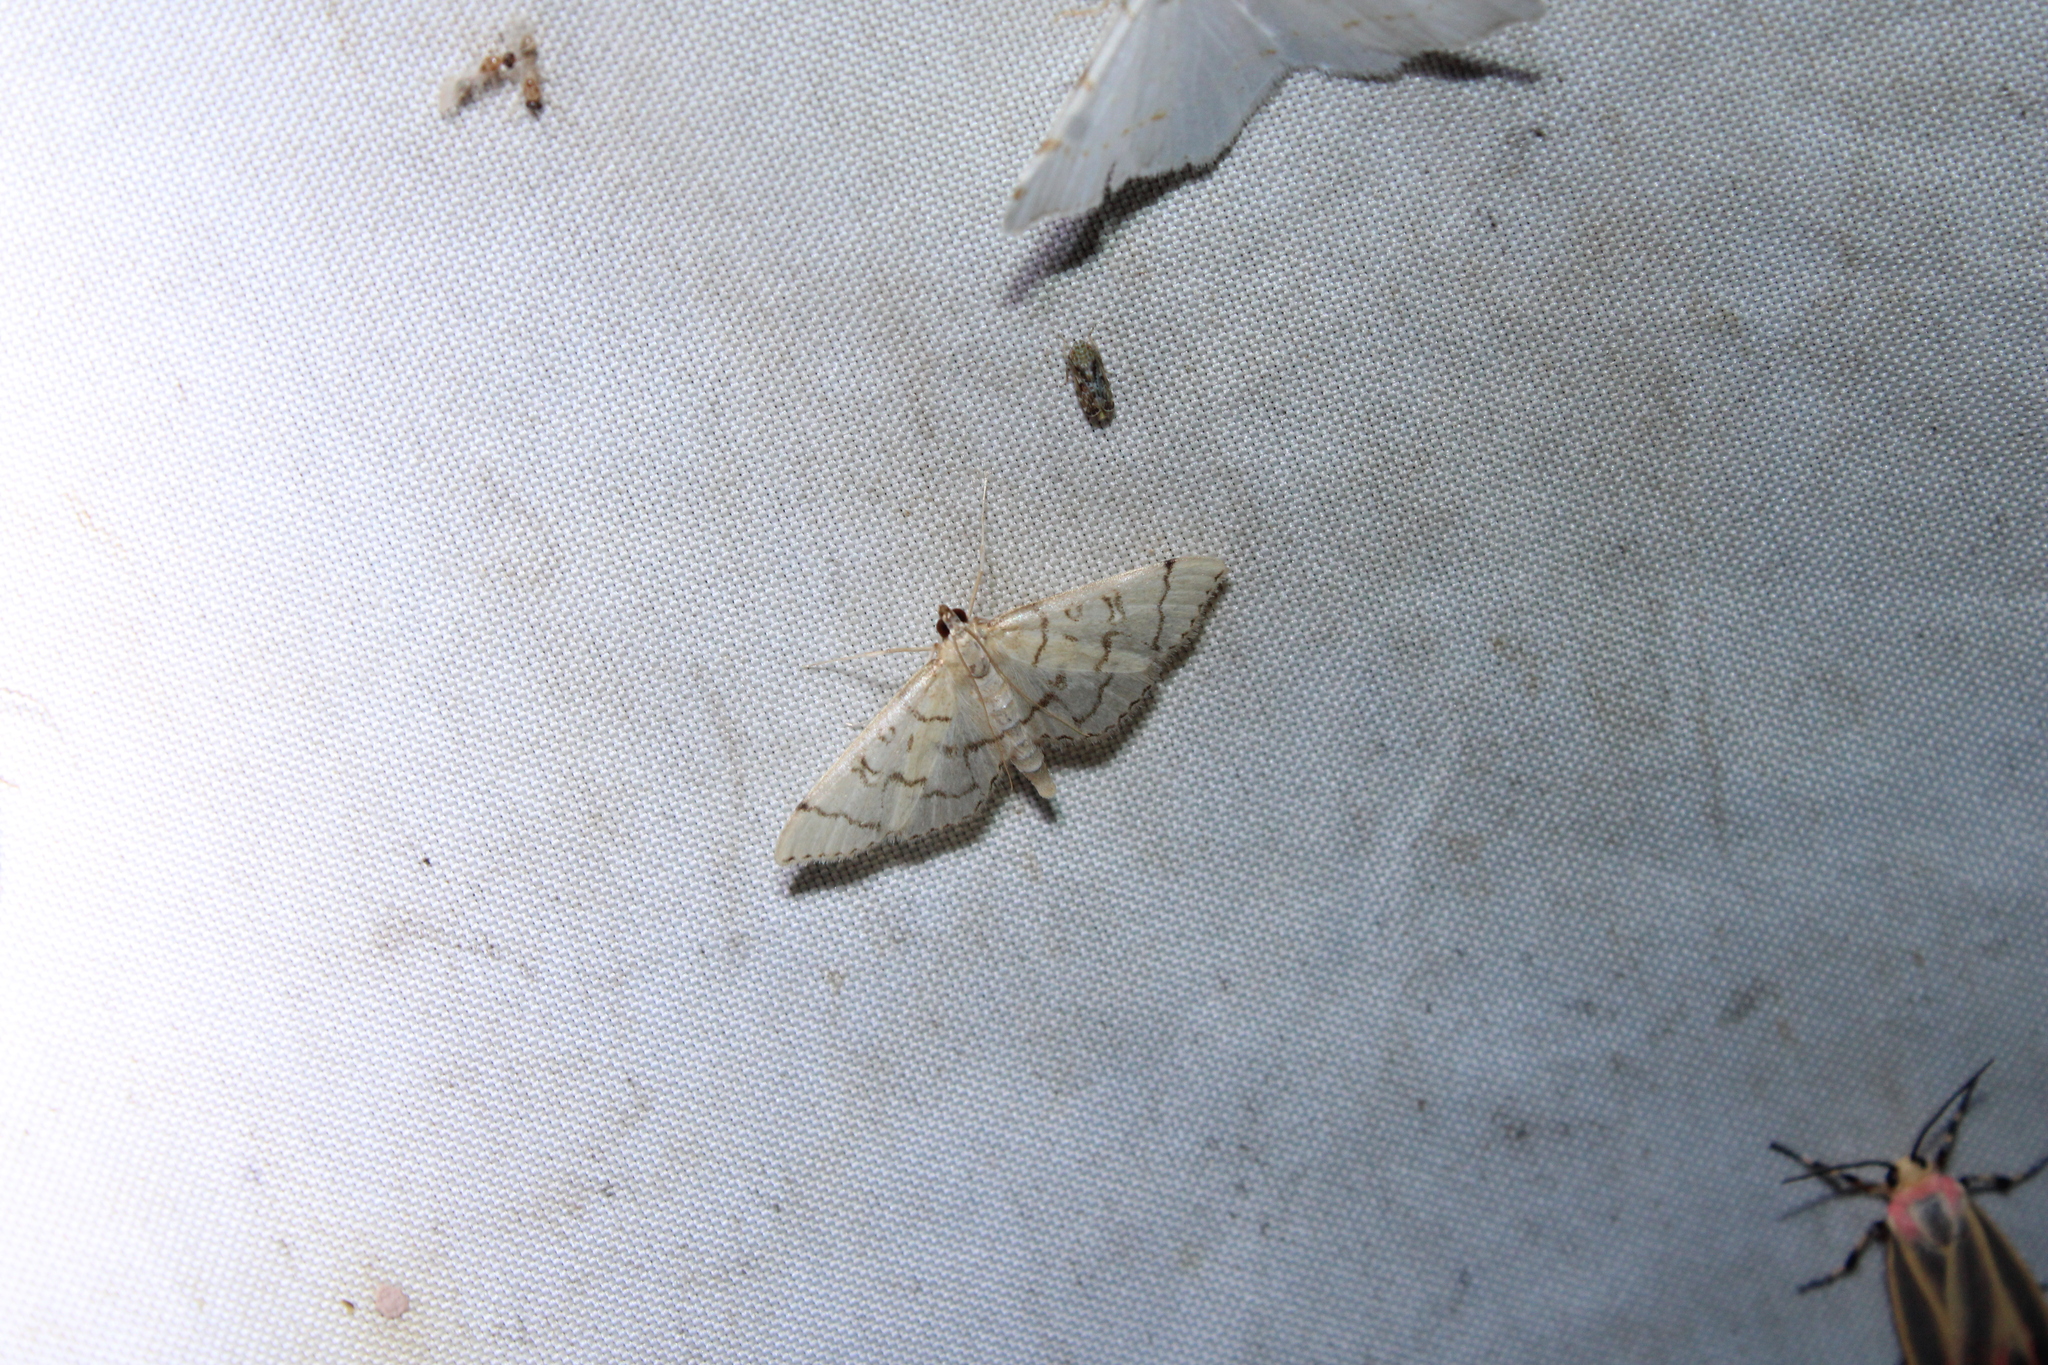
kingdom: Animalia
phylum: Arthropoda
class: Insecta
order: Lepidoptera
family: Crambidae
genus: Lamprosema
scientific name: Lamprosema Blepharomastix ranalis
